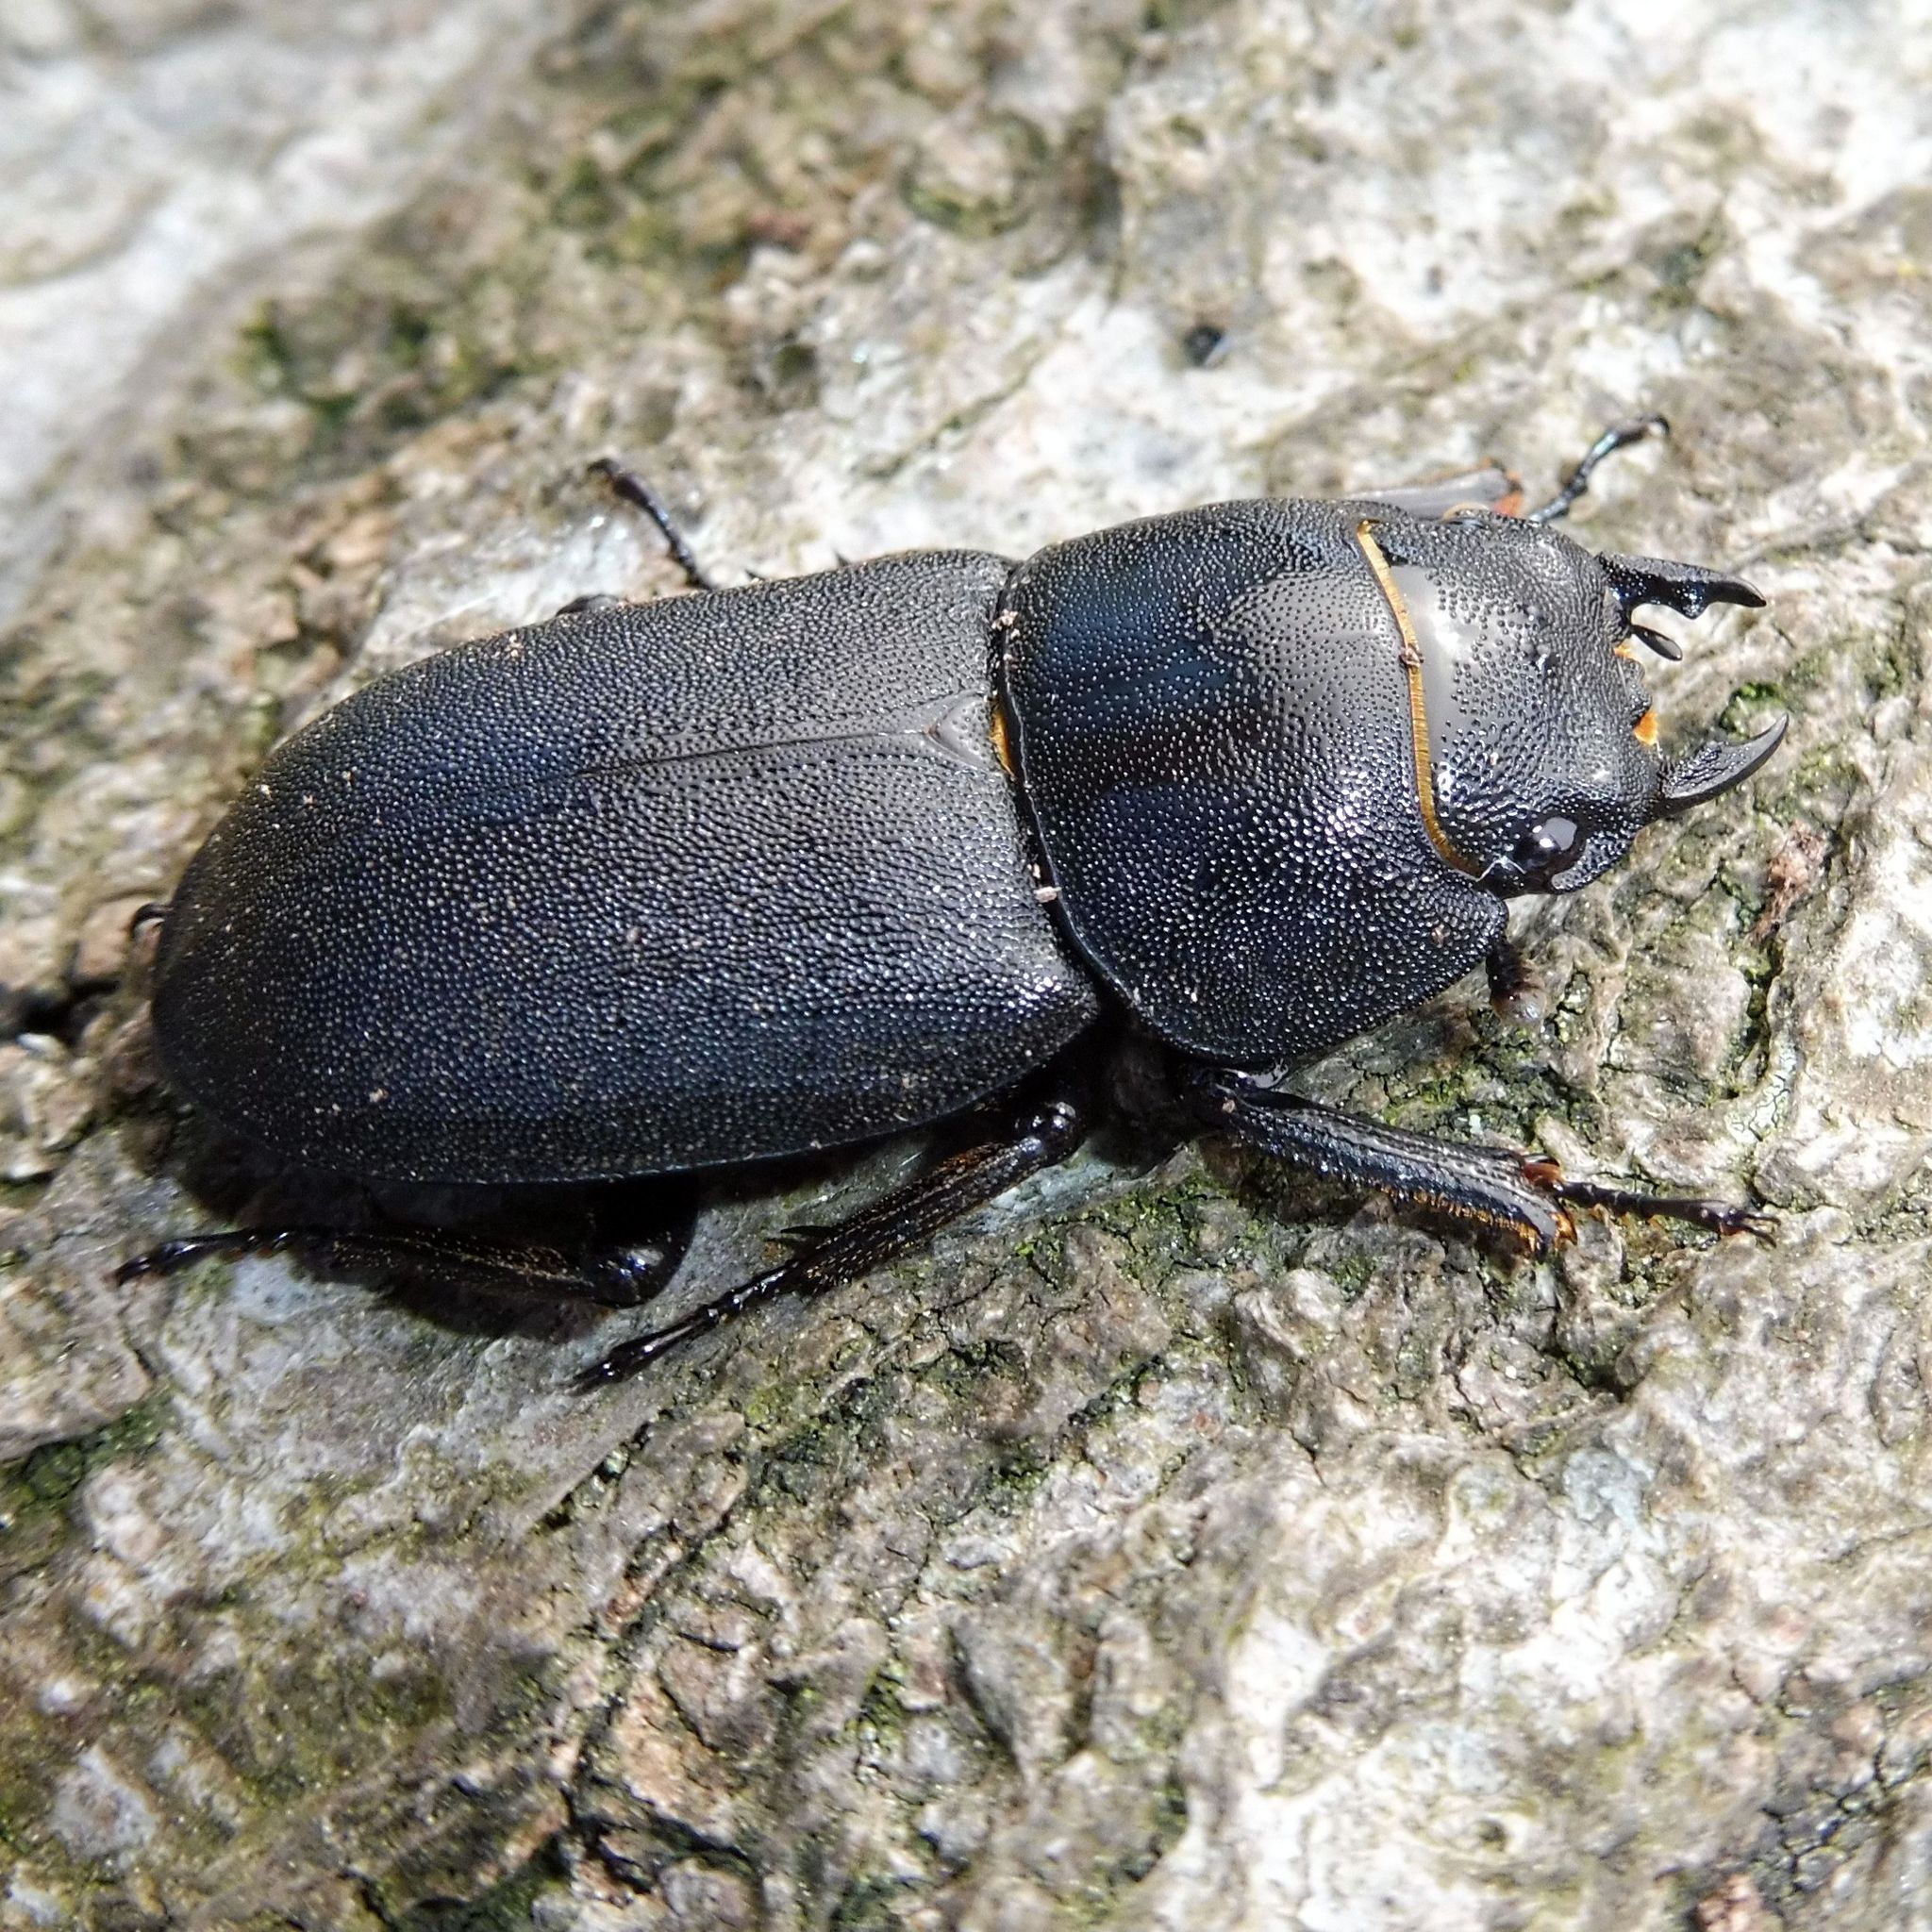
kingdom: Animalia
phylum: Arthropoda
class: Insecta
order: Coleoptera
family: Lucanidae
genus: Dorcus
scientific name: Dorcus parallelipipedus
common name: Lesser stag beetle
